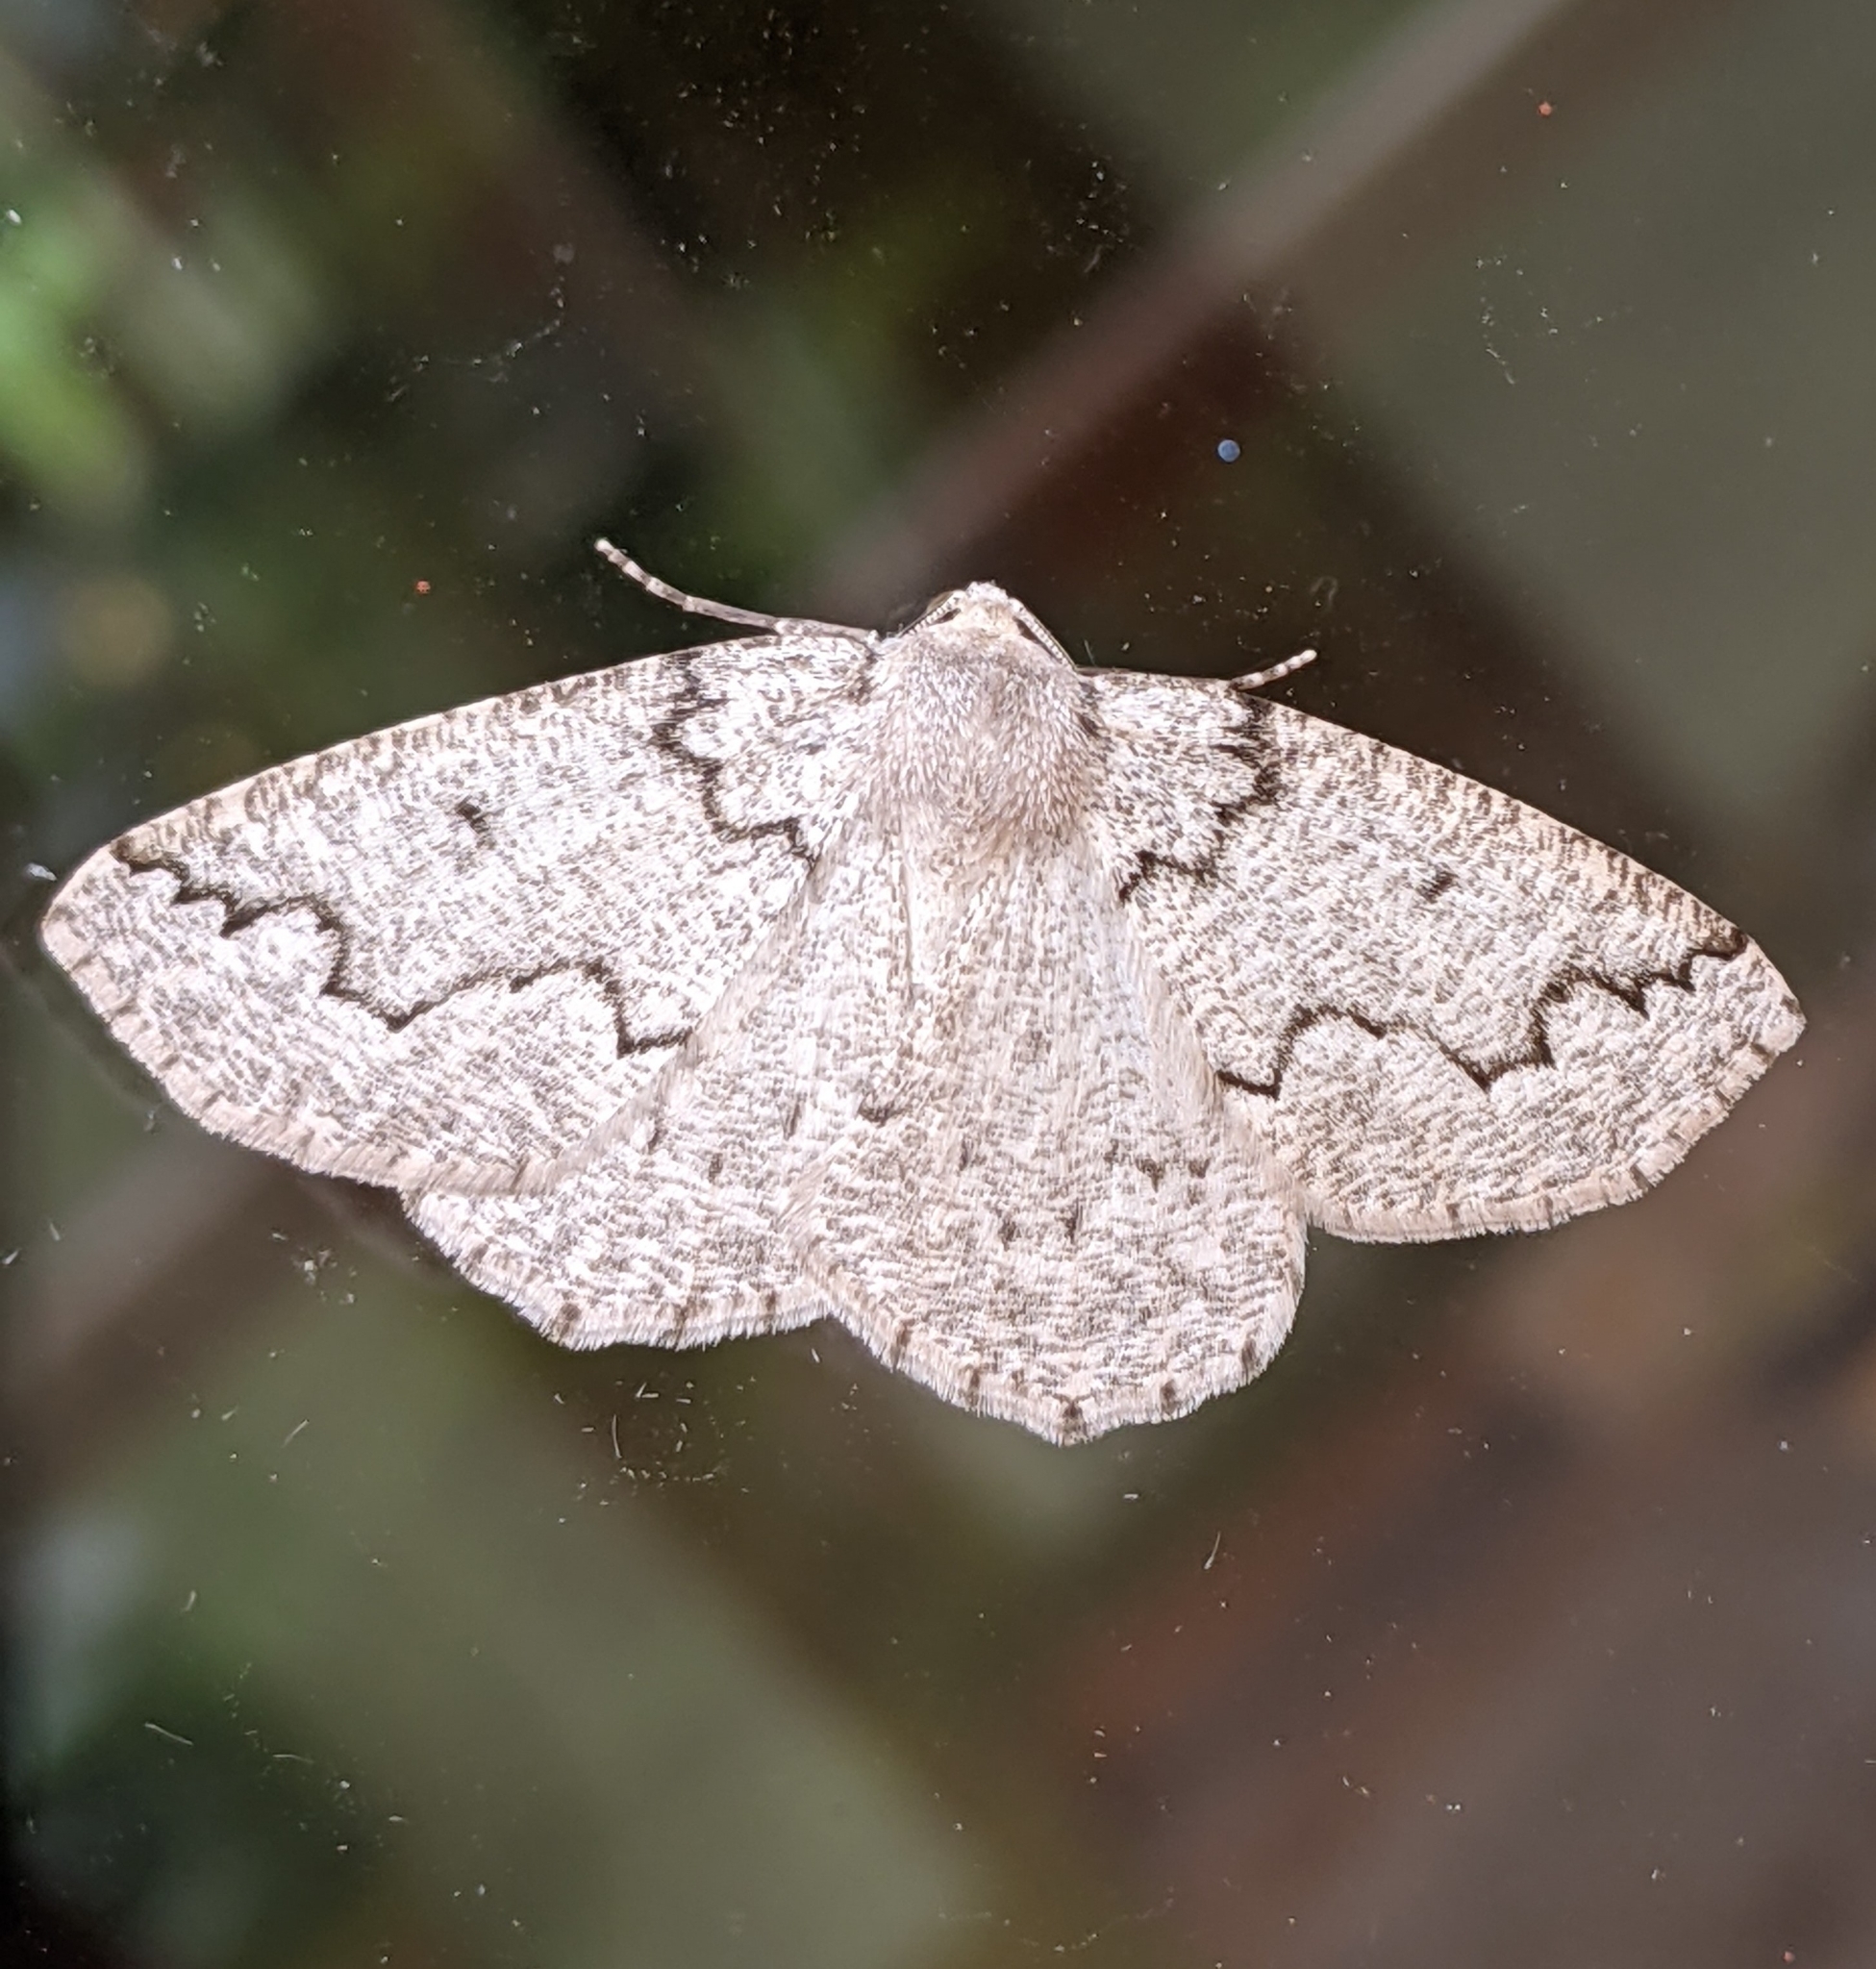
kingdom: Animalia
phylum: Arthropoda
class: Insecta
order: Lepidoptera
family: Geometridae
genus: Sabulodes
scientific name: Sabulodes
